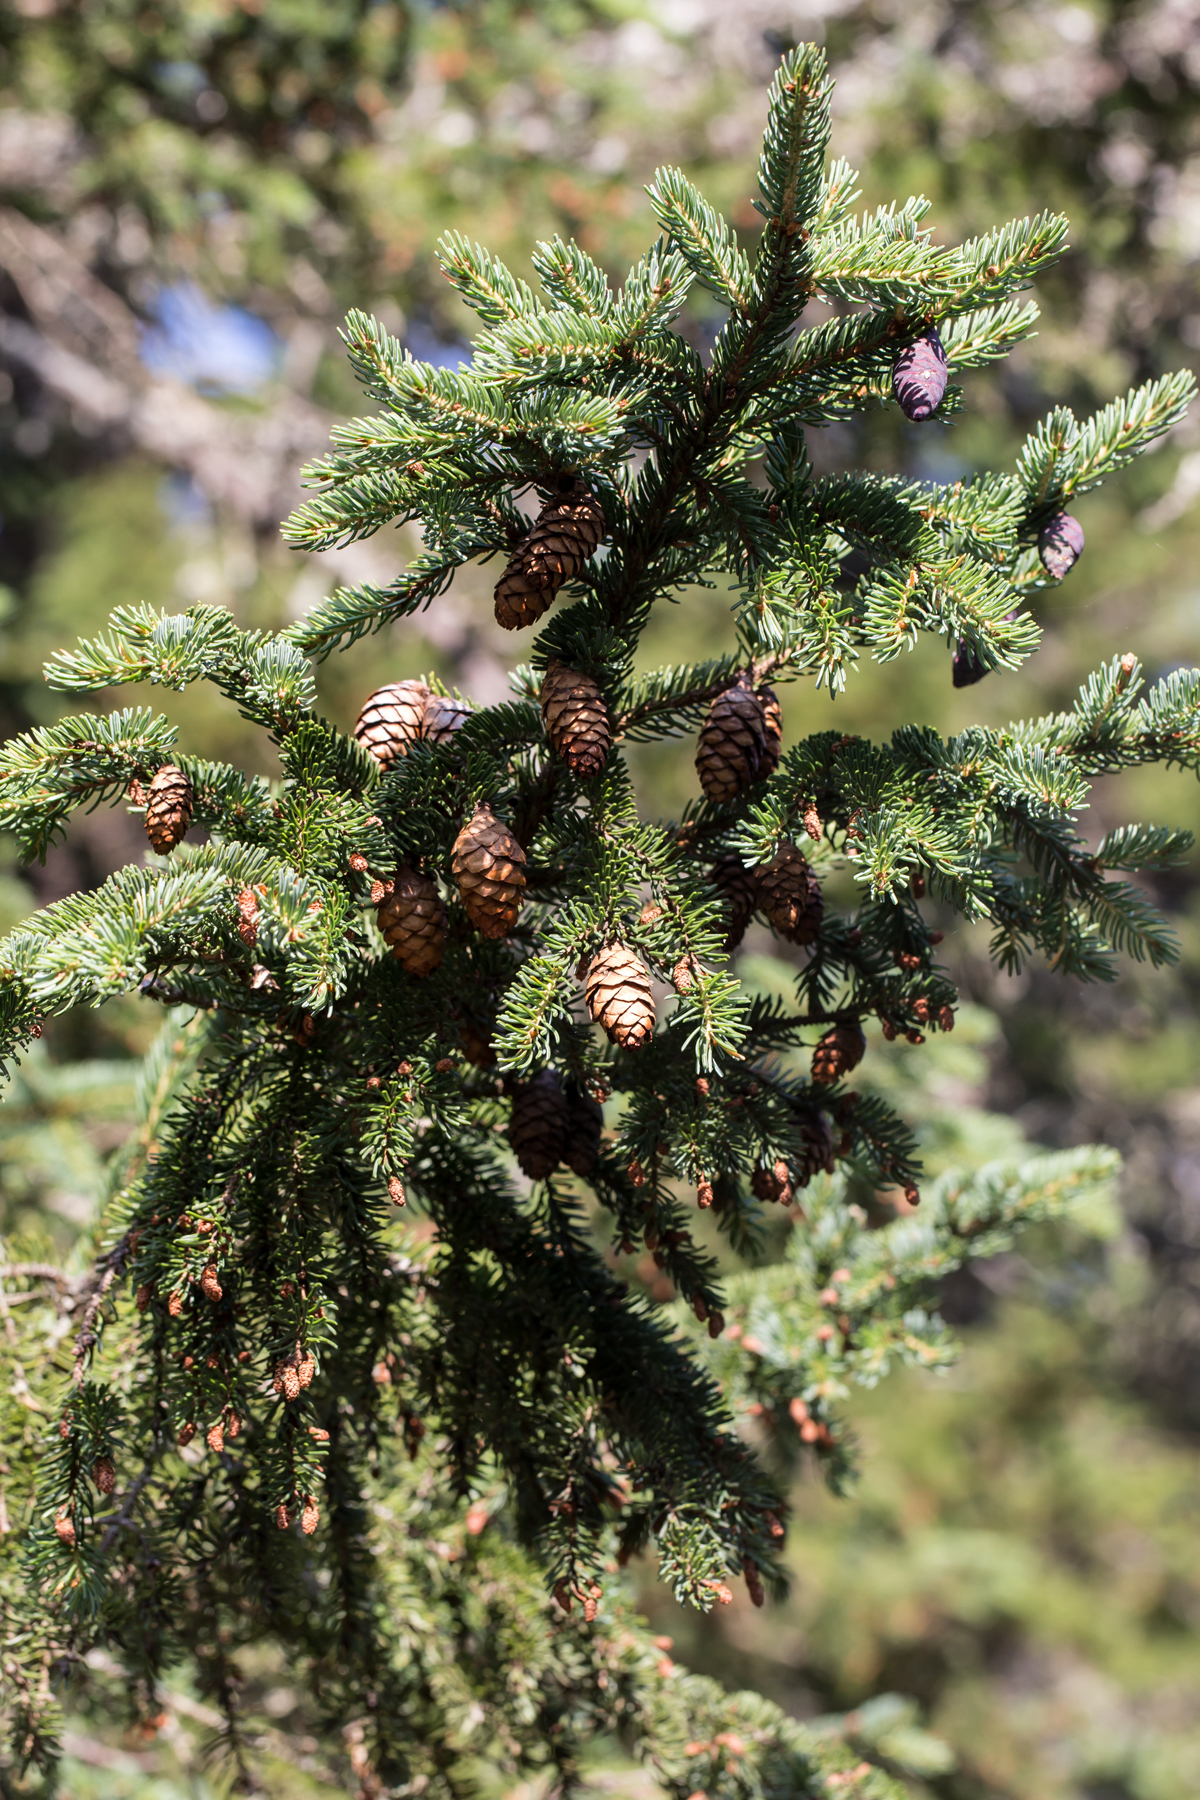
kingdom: Plantae
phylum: Tracheophyta
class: Pinopsida
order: Pinales
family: Pinaceae
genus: Picea
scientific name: Picea mariana
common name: Black spruce
